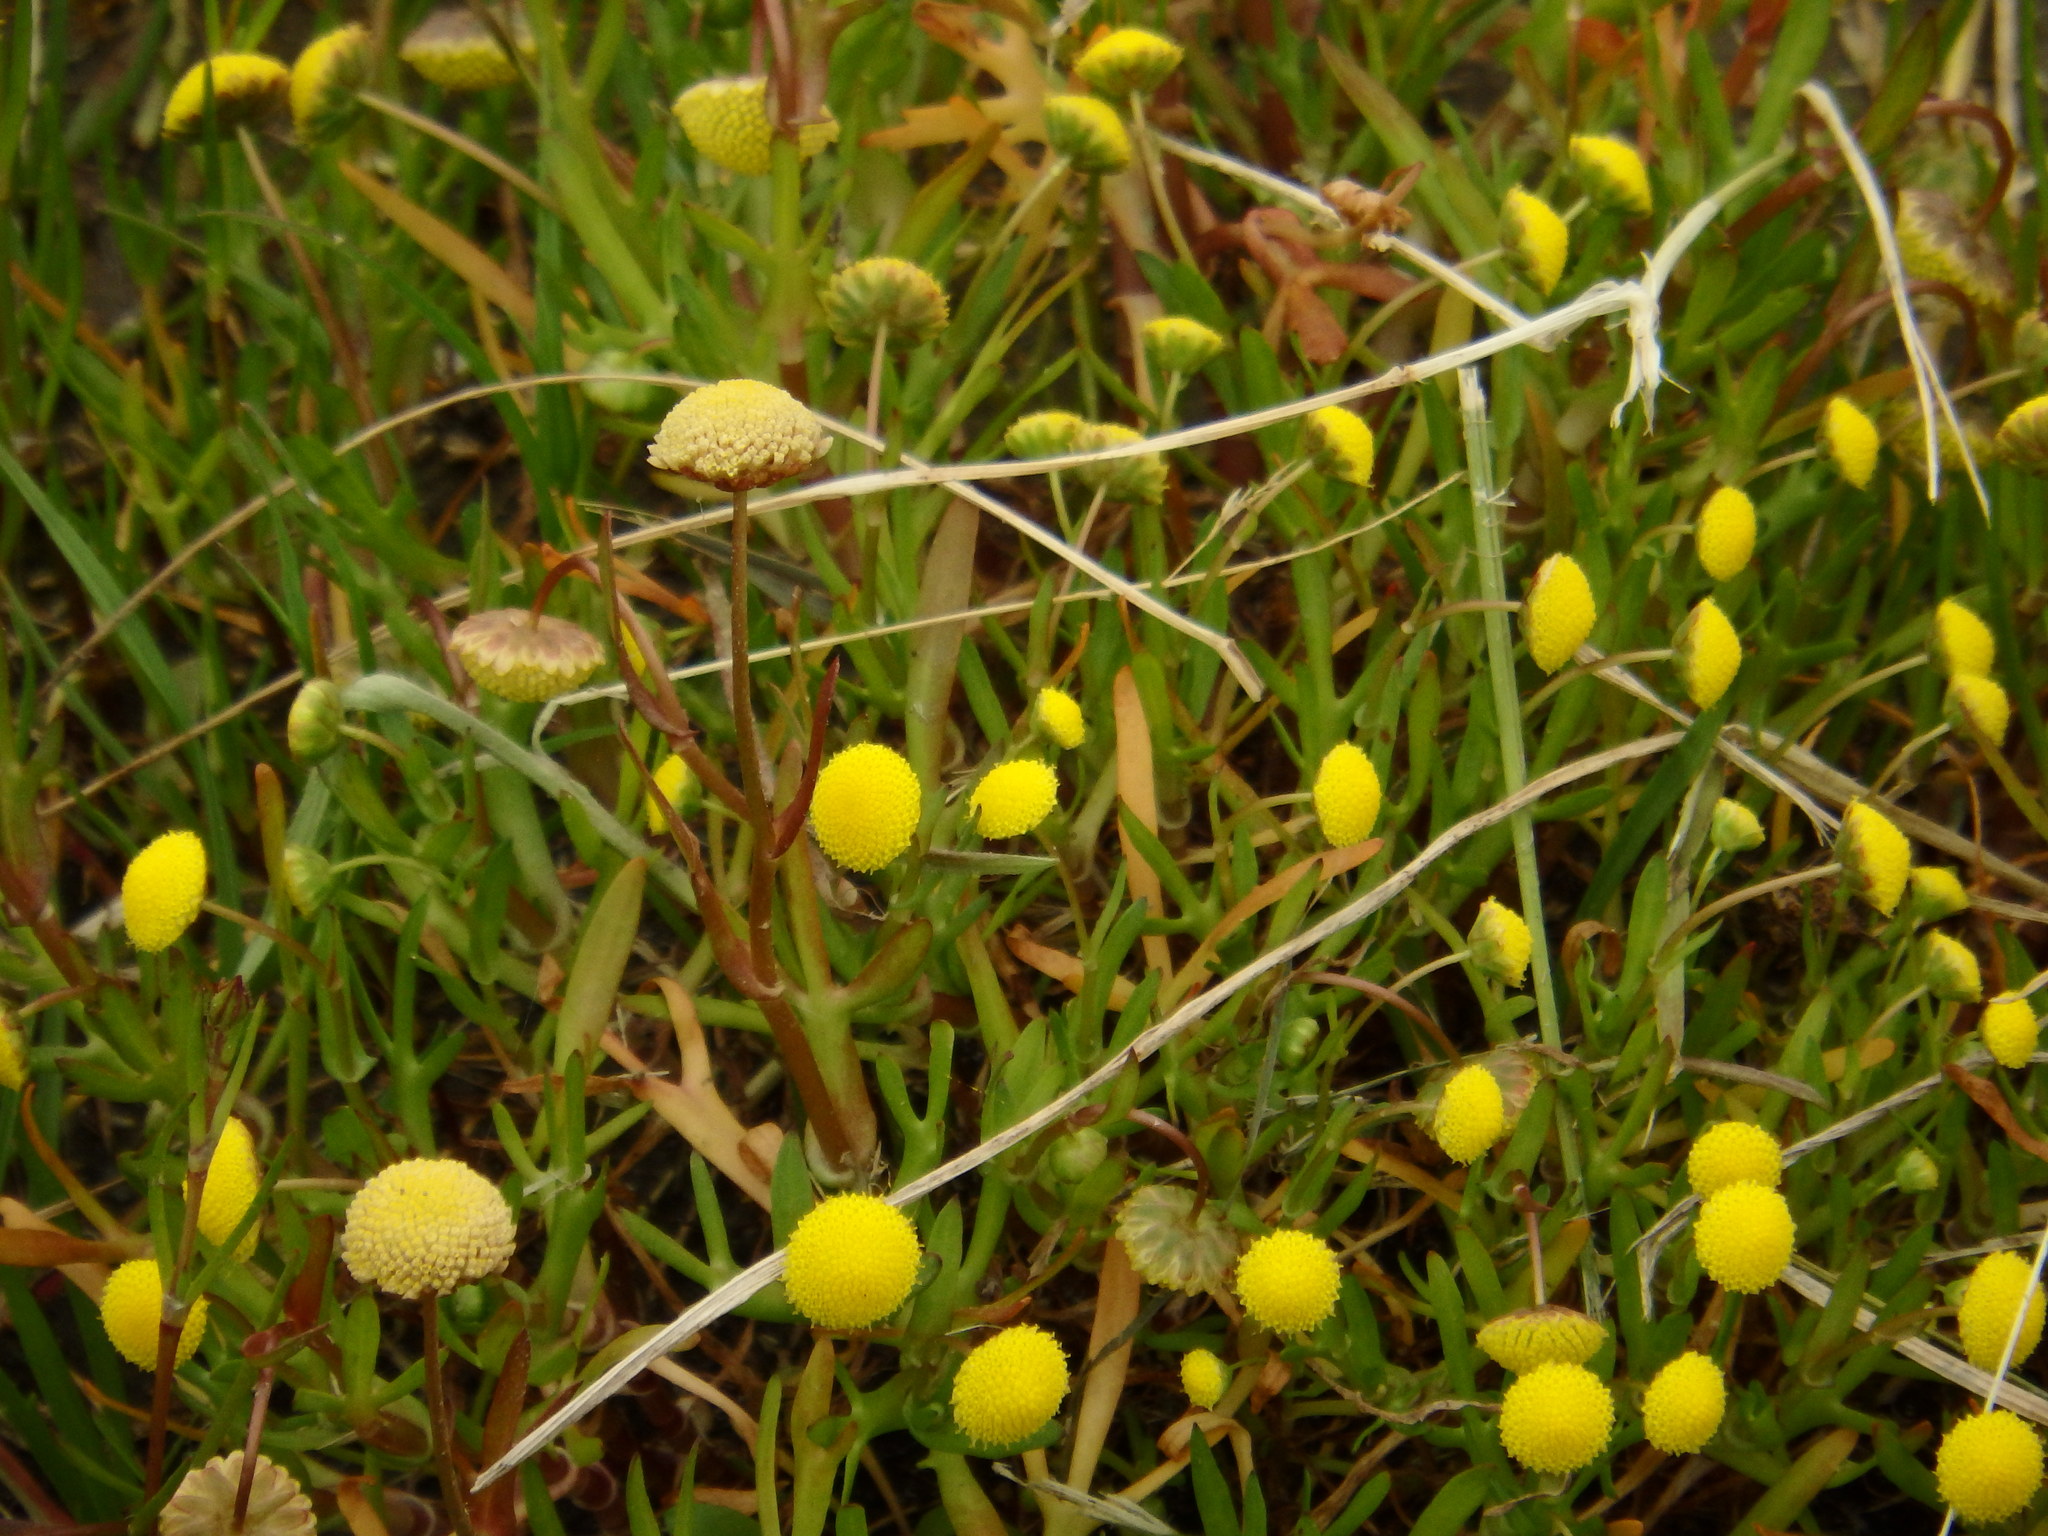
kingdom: Plantae
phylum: Tracheophyta
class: Magnoliopsida
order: Asterales
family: Asteraceae
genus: Cotula
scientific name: Cotula coronopifolia
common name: Buttonweed
